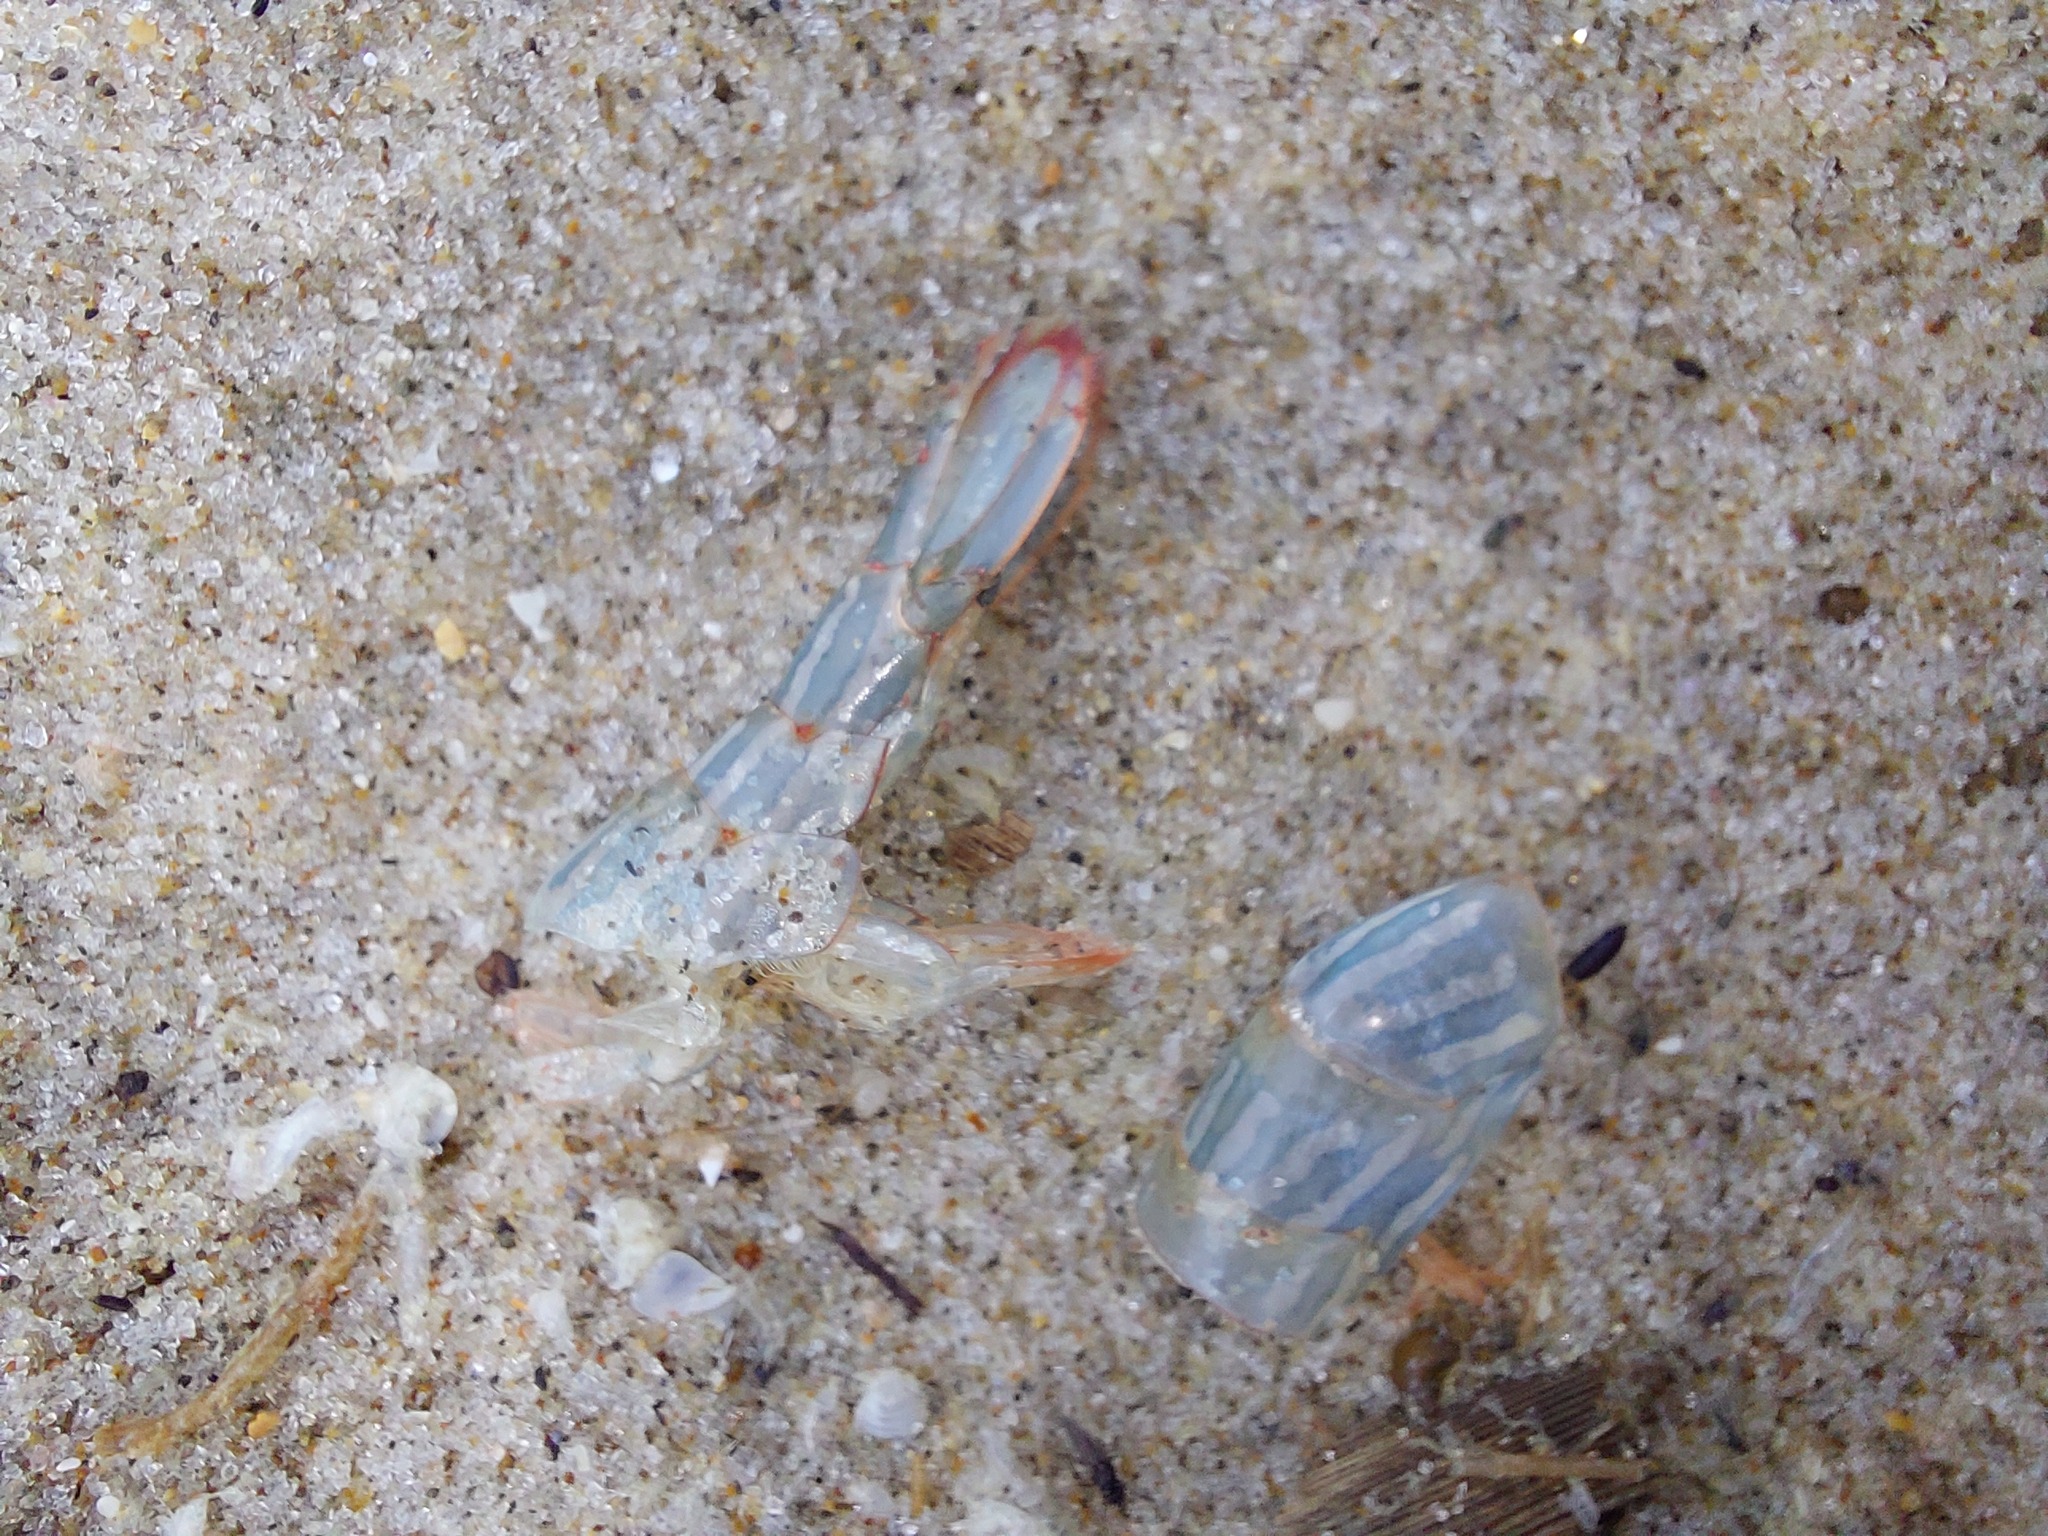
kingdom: Animalia
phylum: Arthropoda
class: Malacostraca
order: Decapoda
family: Hippolytidae
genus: Alope
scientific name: Alope spinifrons
